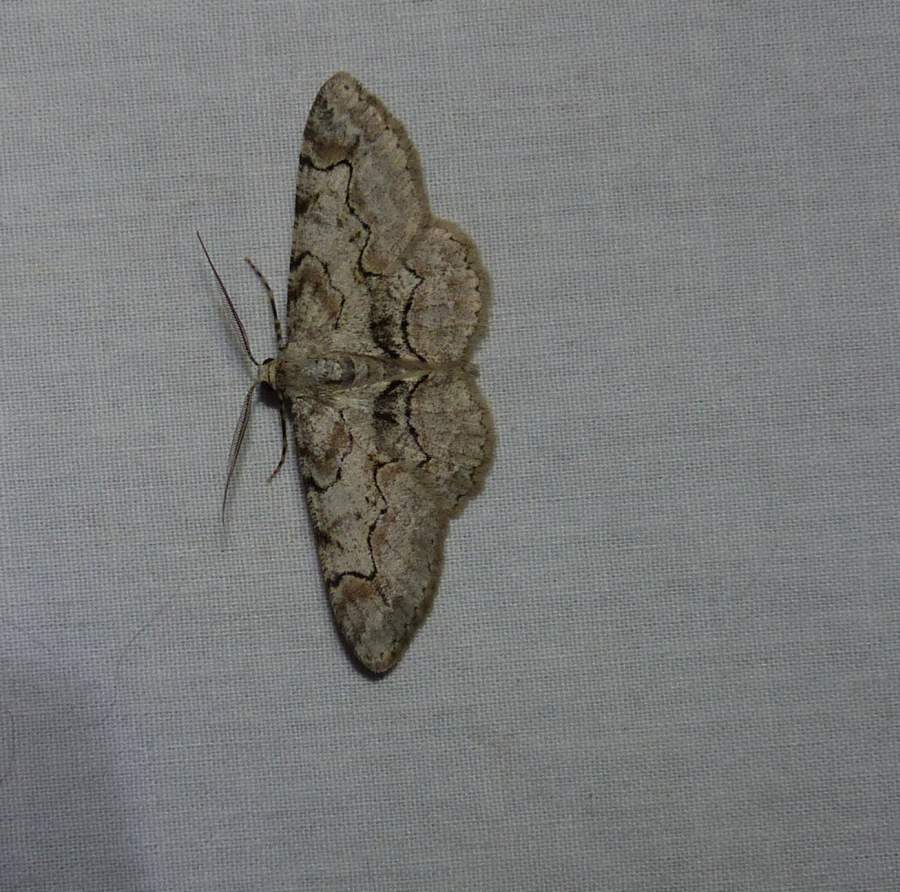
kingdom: Animalia
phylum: Arthropoda
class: Insecta
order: Lepidoptera
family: Geometridae
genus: Iridopsis
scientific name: Iridopsis larvaria
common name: Bent-line gray
